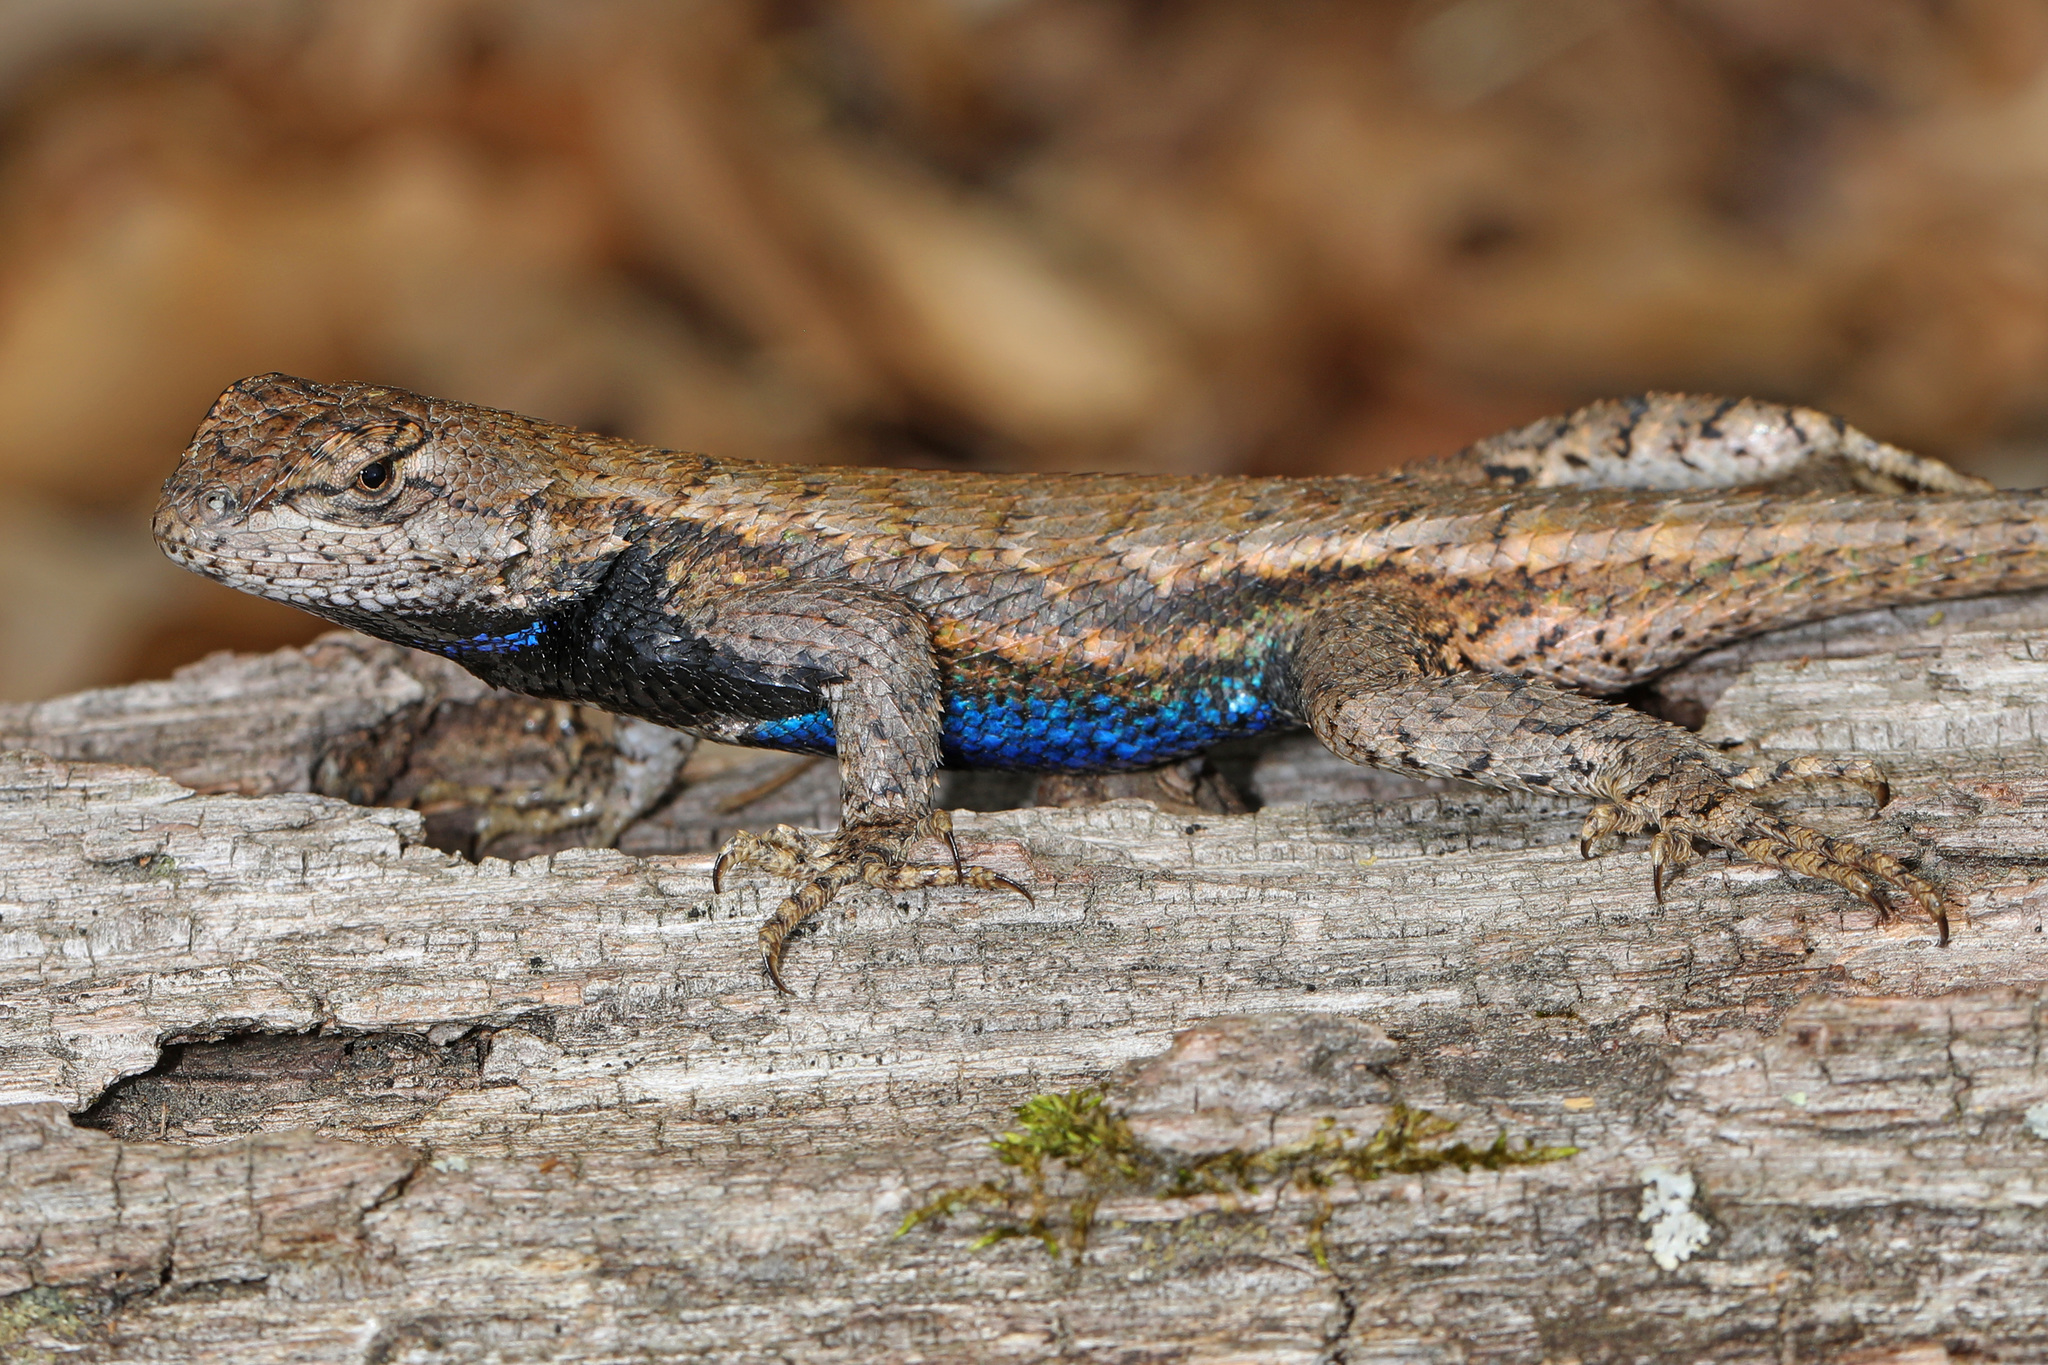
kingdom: Animalia
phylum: Chordata
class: Squamata
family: Phrynosomatidae
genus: Sceloporus
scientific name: Sceloporus undulatus
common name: Eastern fence lizard
